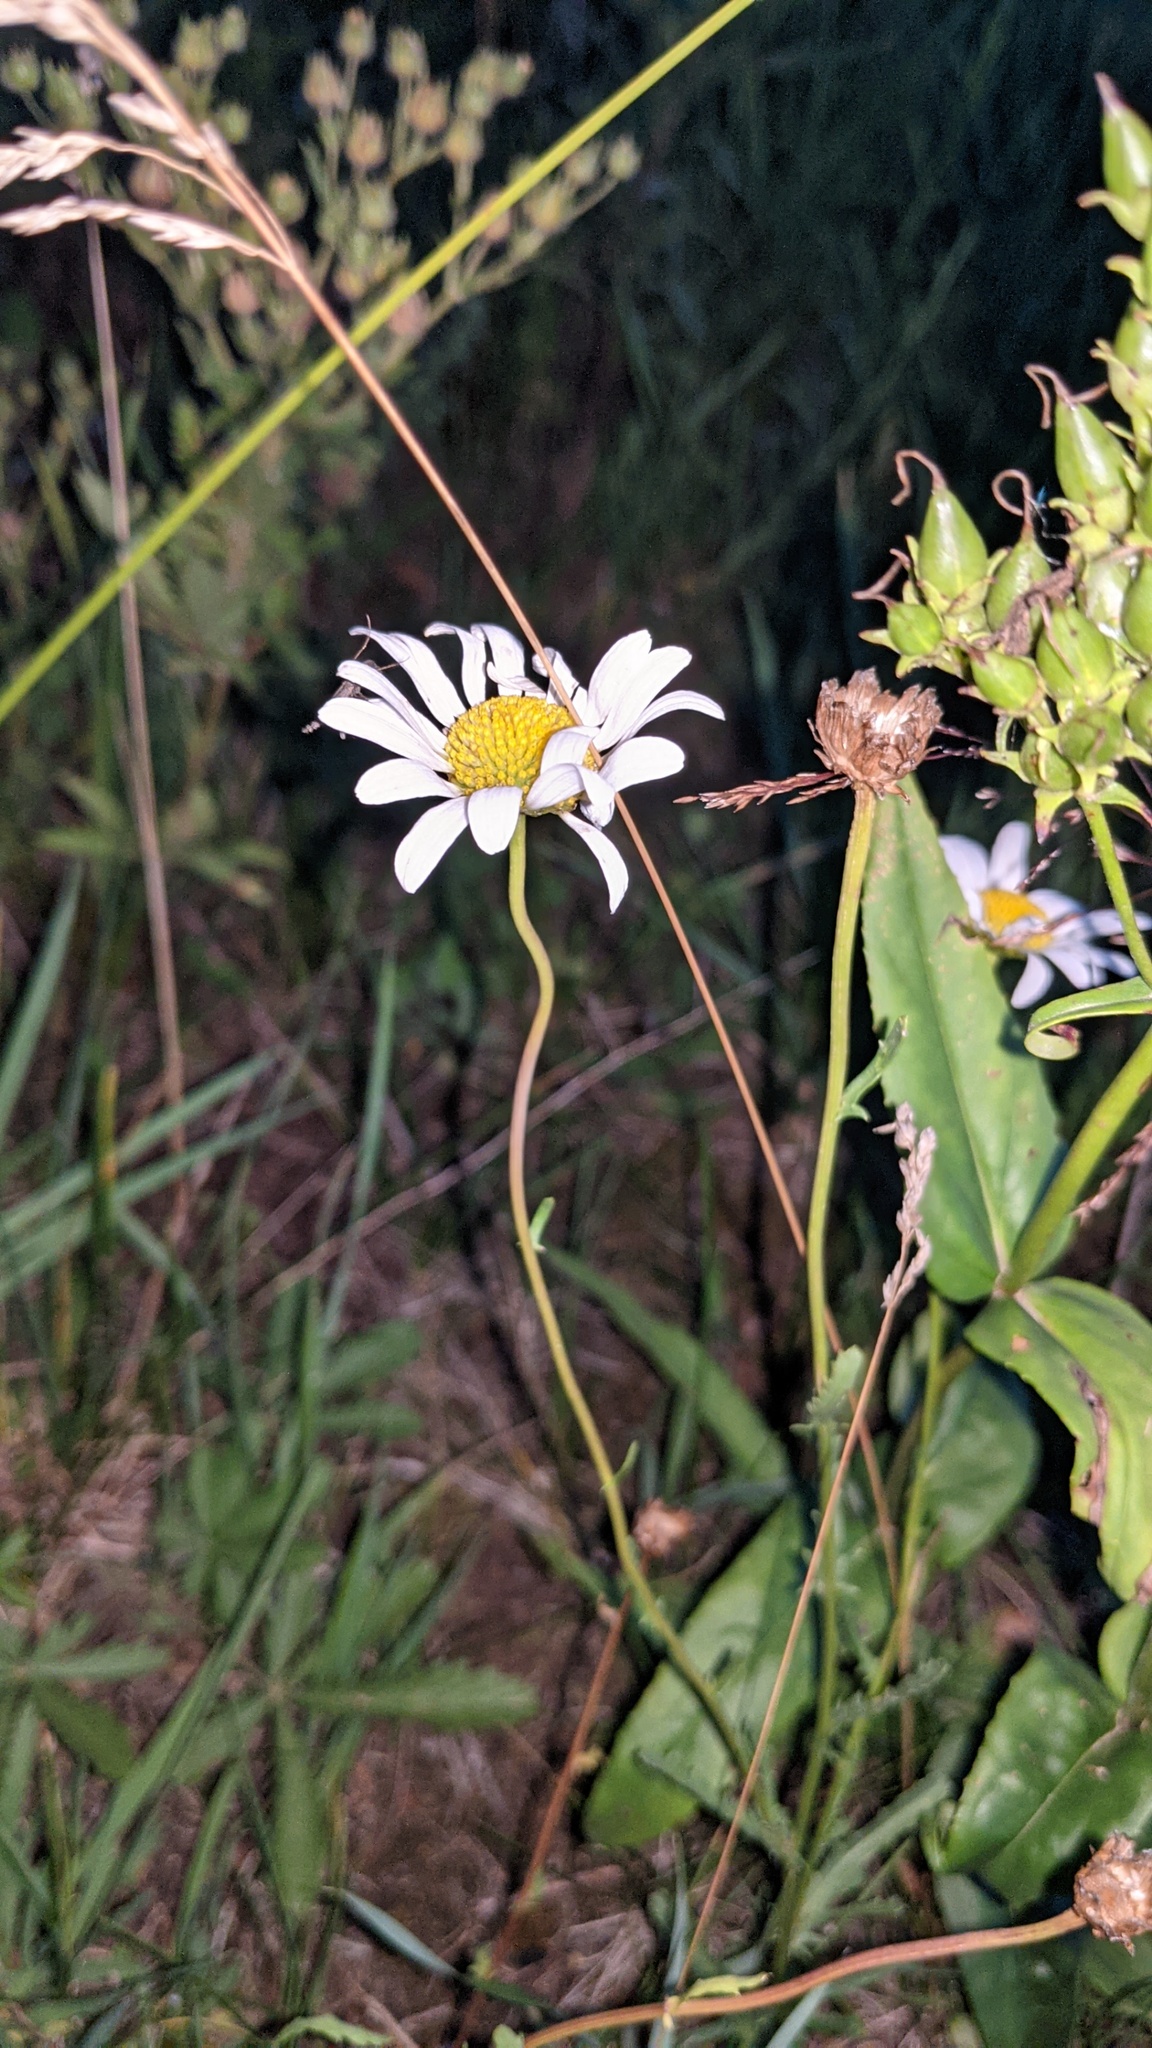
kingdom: Plantae
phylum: Tracheophyta
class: Magnoliopsida
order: Asterales
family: Asteraceae
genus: Leucanthemum
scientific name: Leucanthemum vulgare
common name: Oxeye daisy
